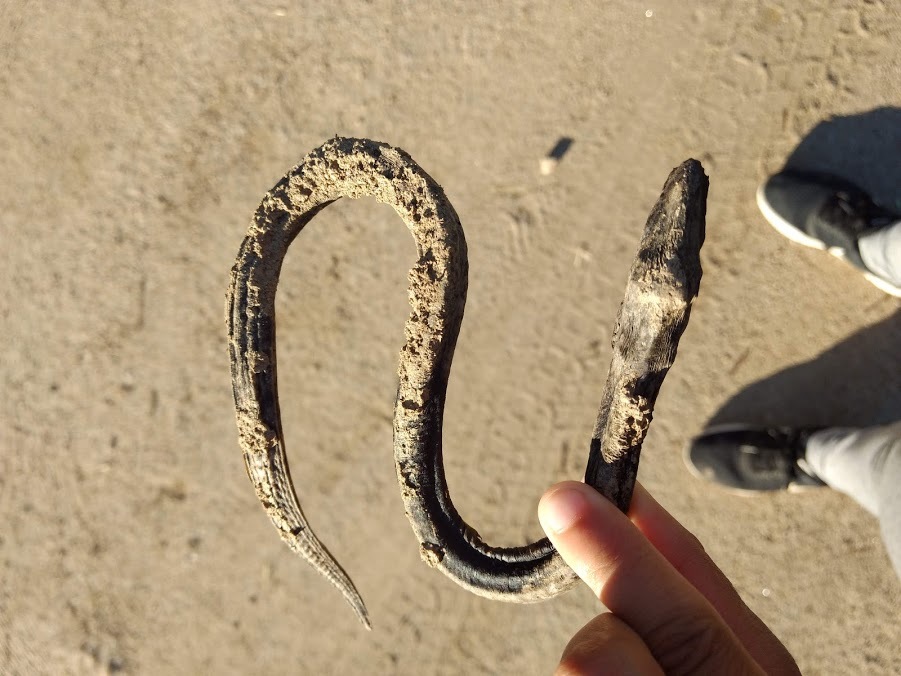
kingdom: Animalia
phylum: Chordata
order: Synbranchiformes
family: Synbranchidae
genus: Synbranchus
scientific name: Synbranchus marmoratus
